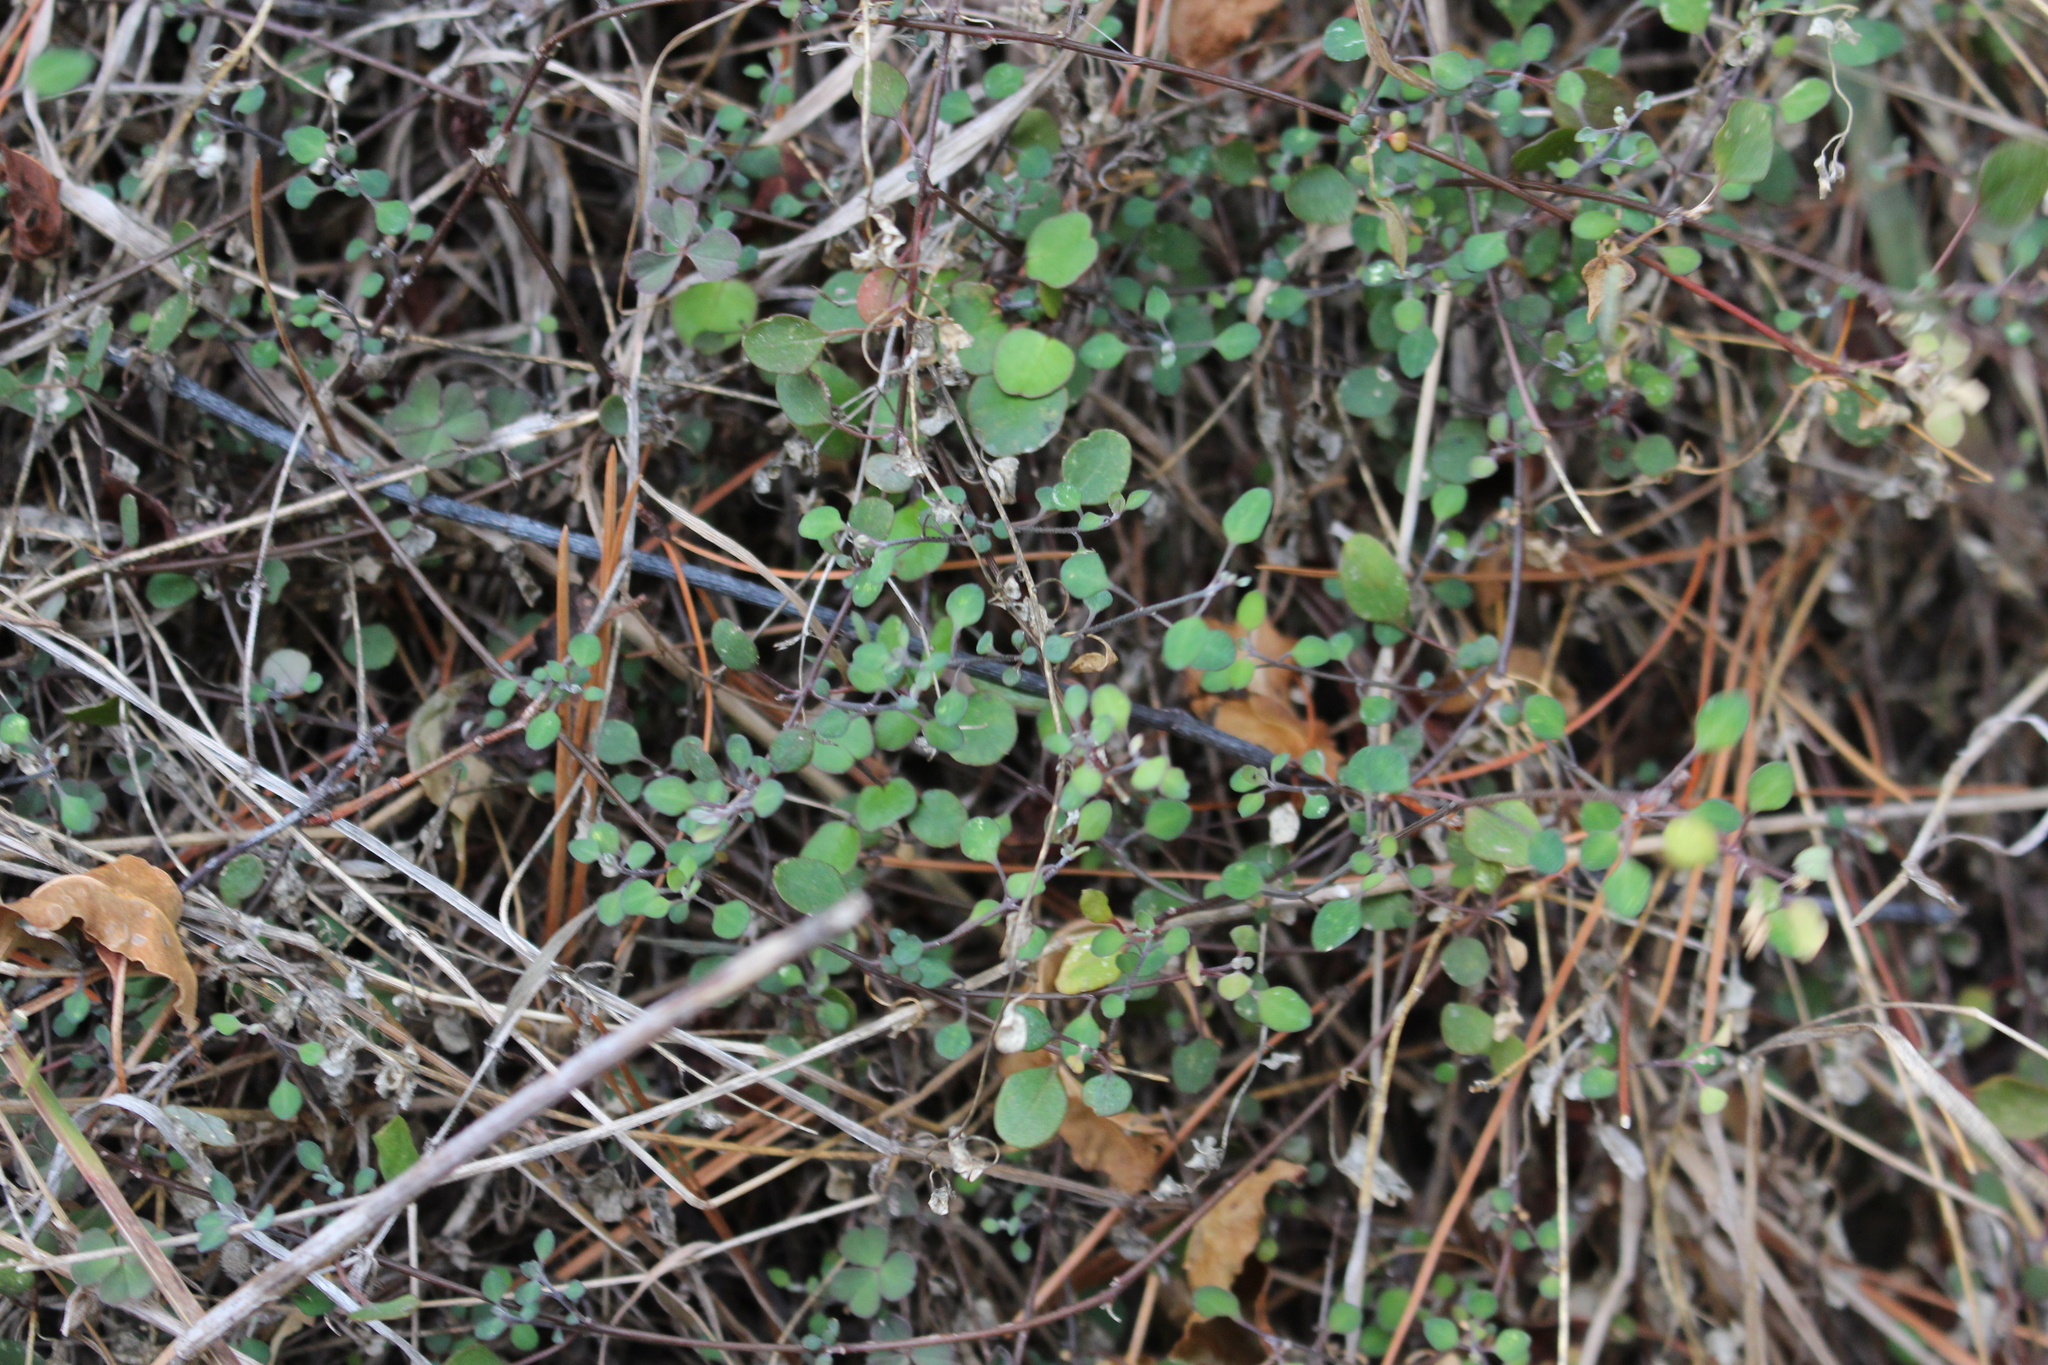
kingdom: Plantae
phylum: Tracheophyta
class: Magnoliopsida
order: Caryophyllales
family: Amaranthaceae
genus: Chenopodium
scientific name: Chenopodium allanii
